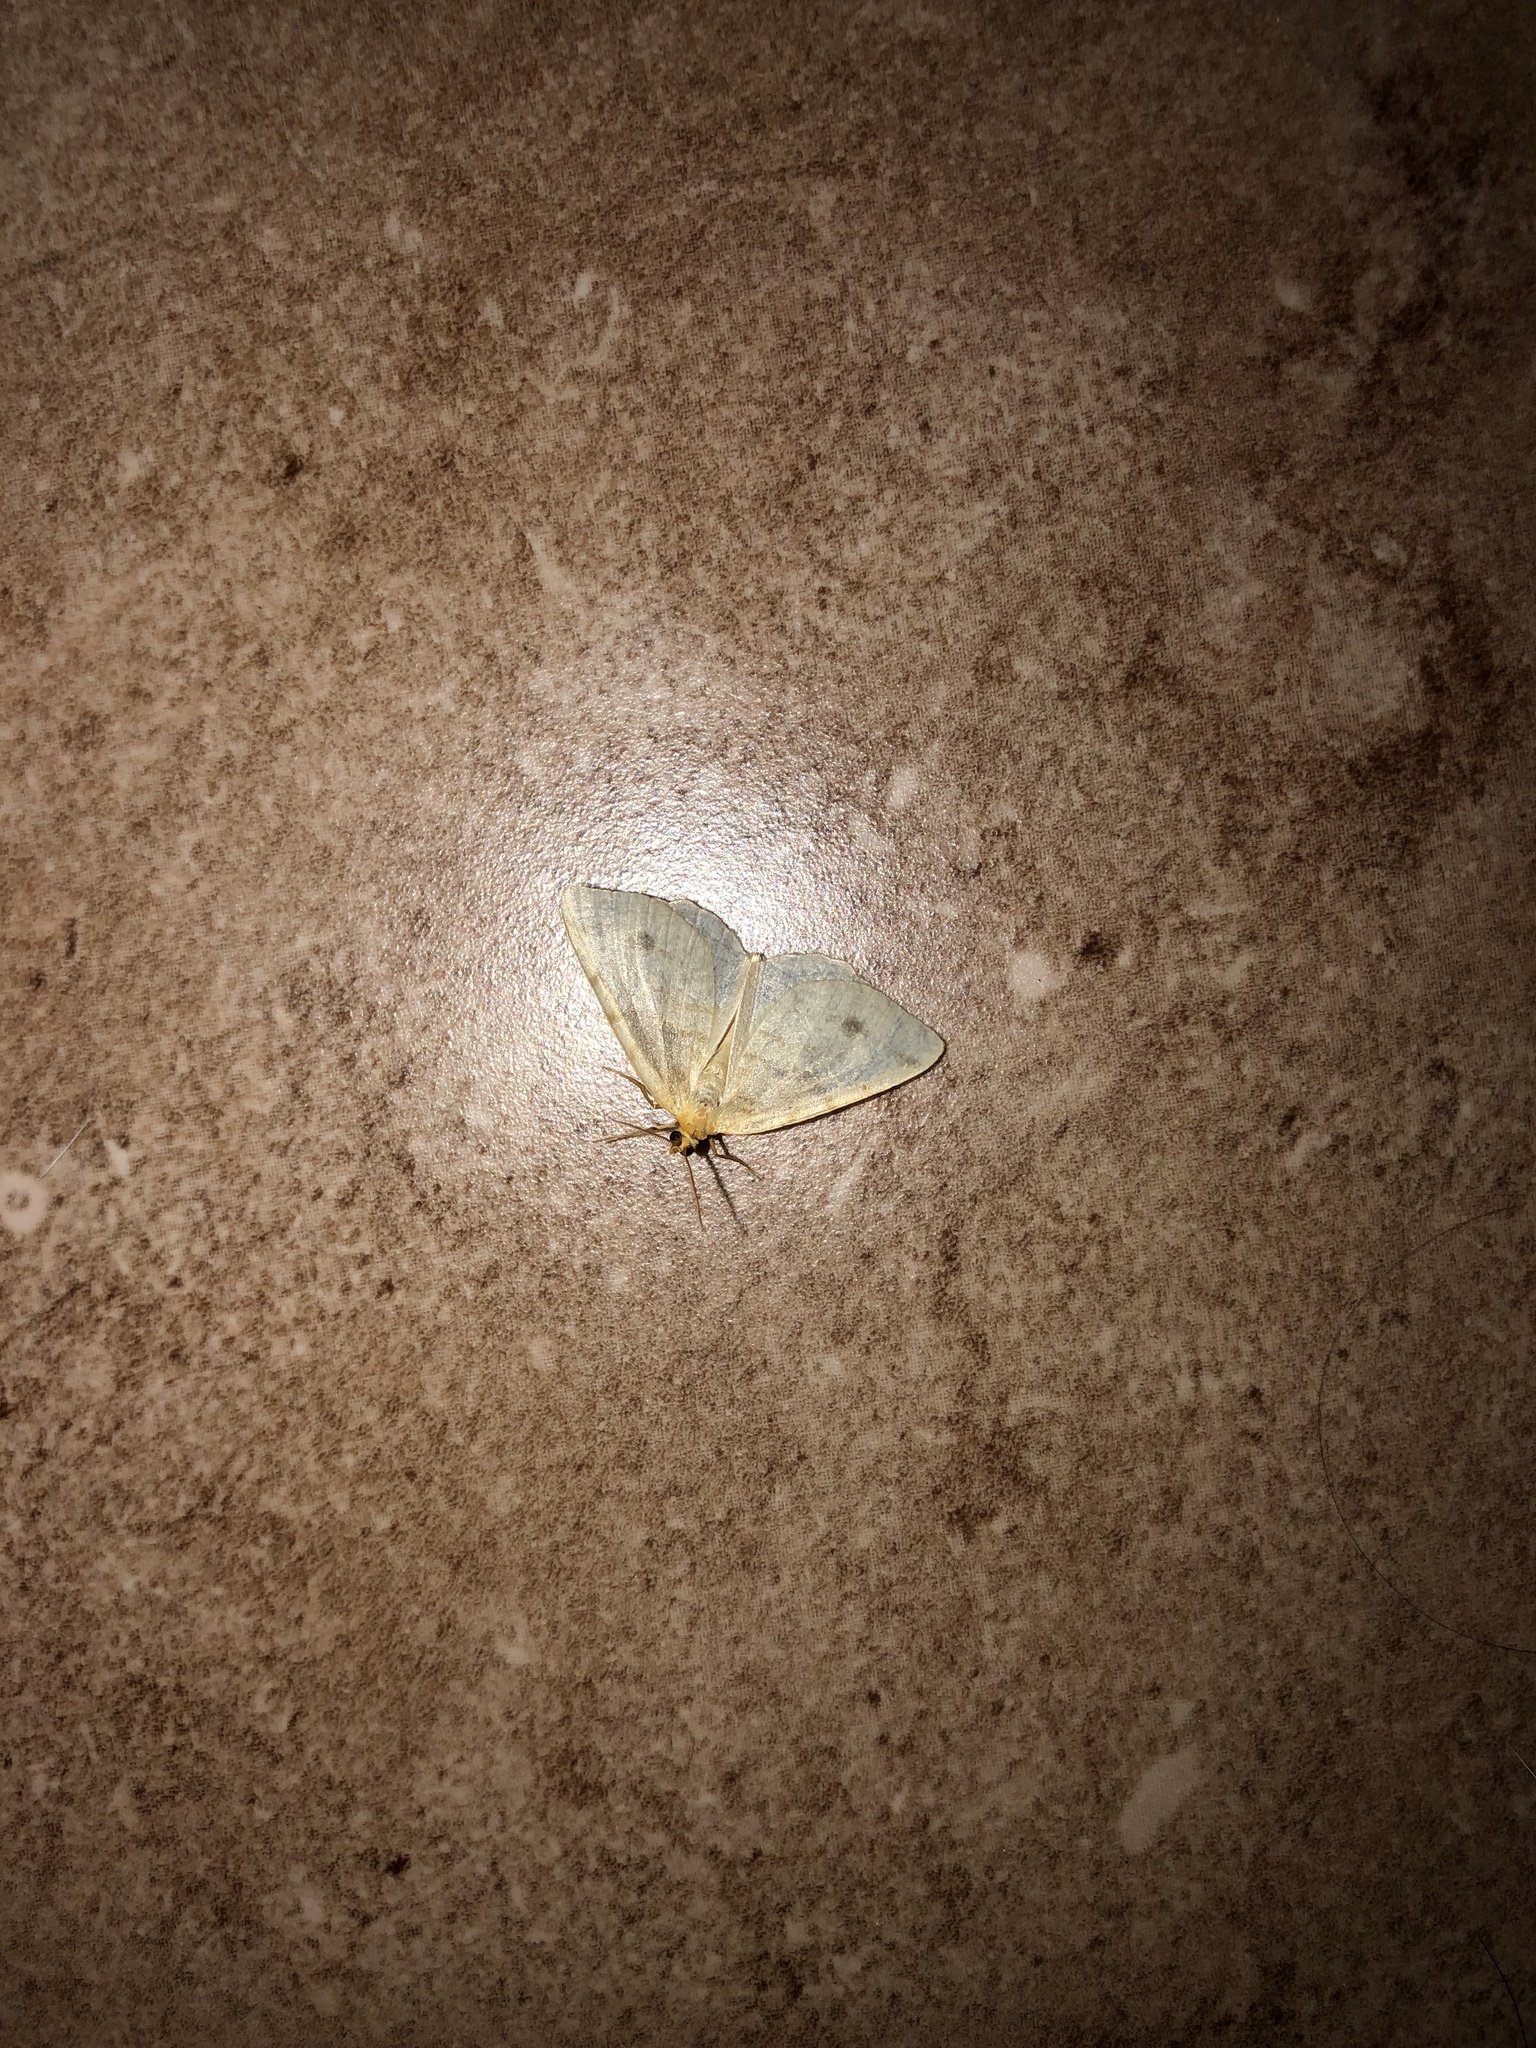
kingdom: Animalia
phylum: Arthropoda
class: Insecta
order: Lepidoptera
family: Geometridae
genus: Macaria
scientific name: Macaria ribearia
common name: Currant spanworm moth
